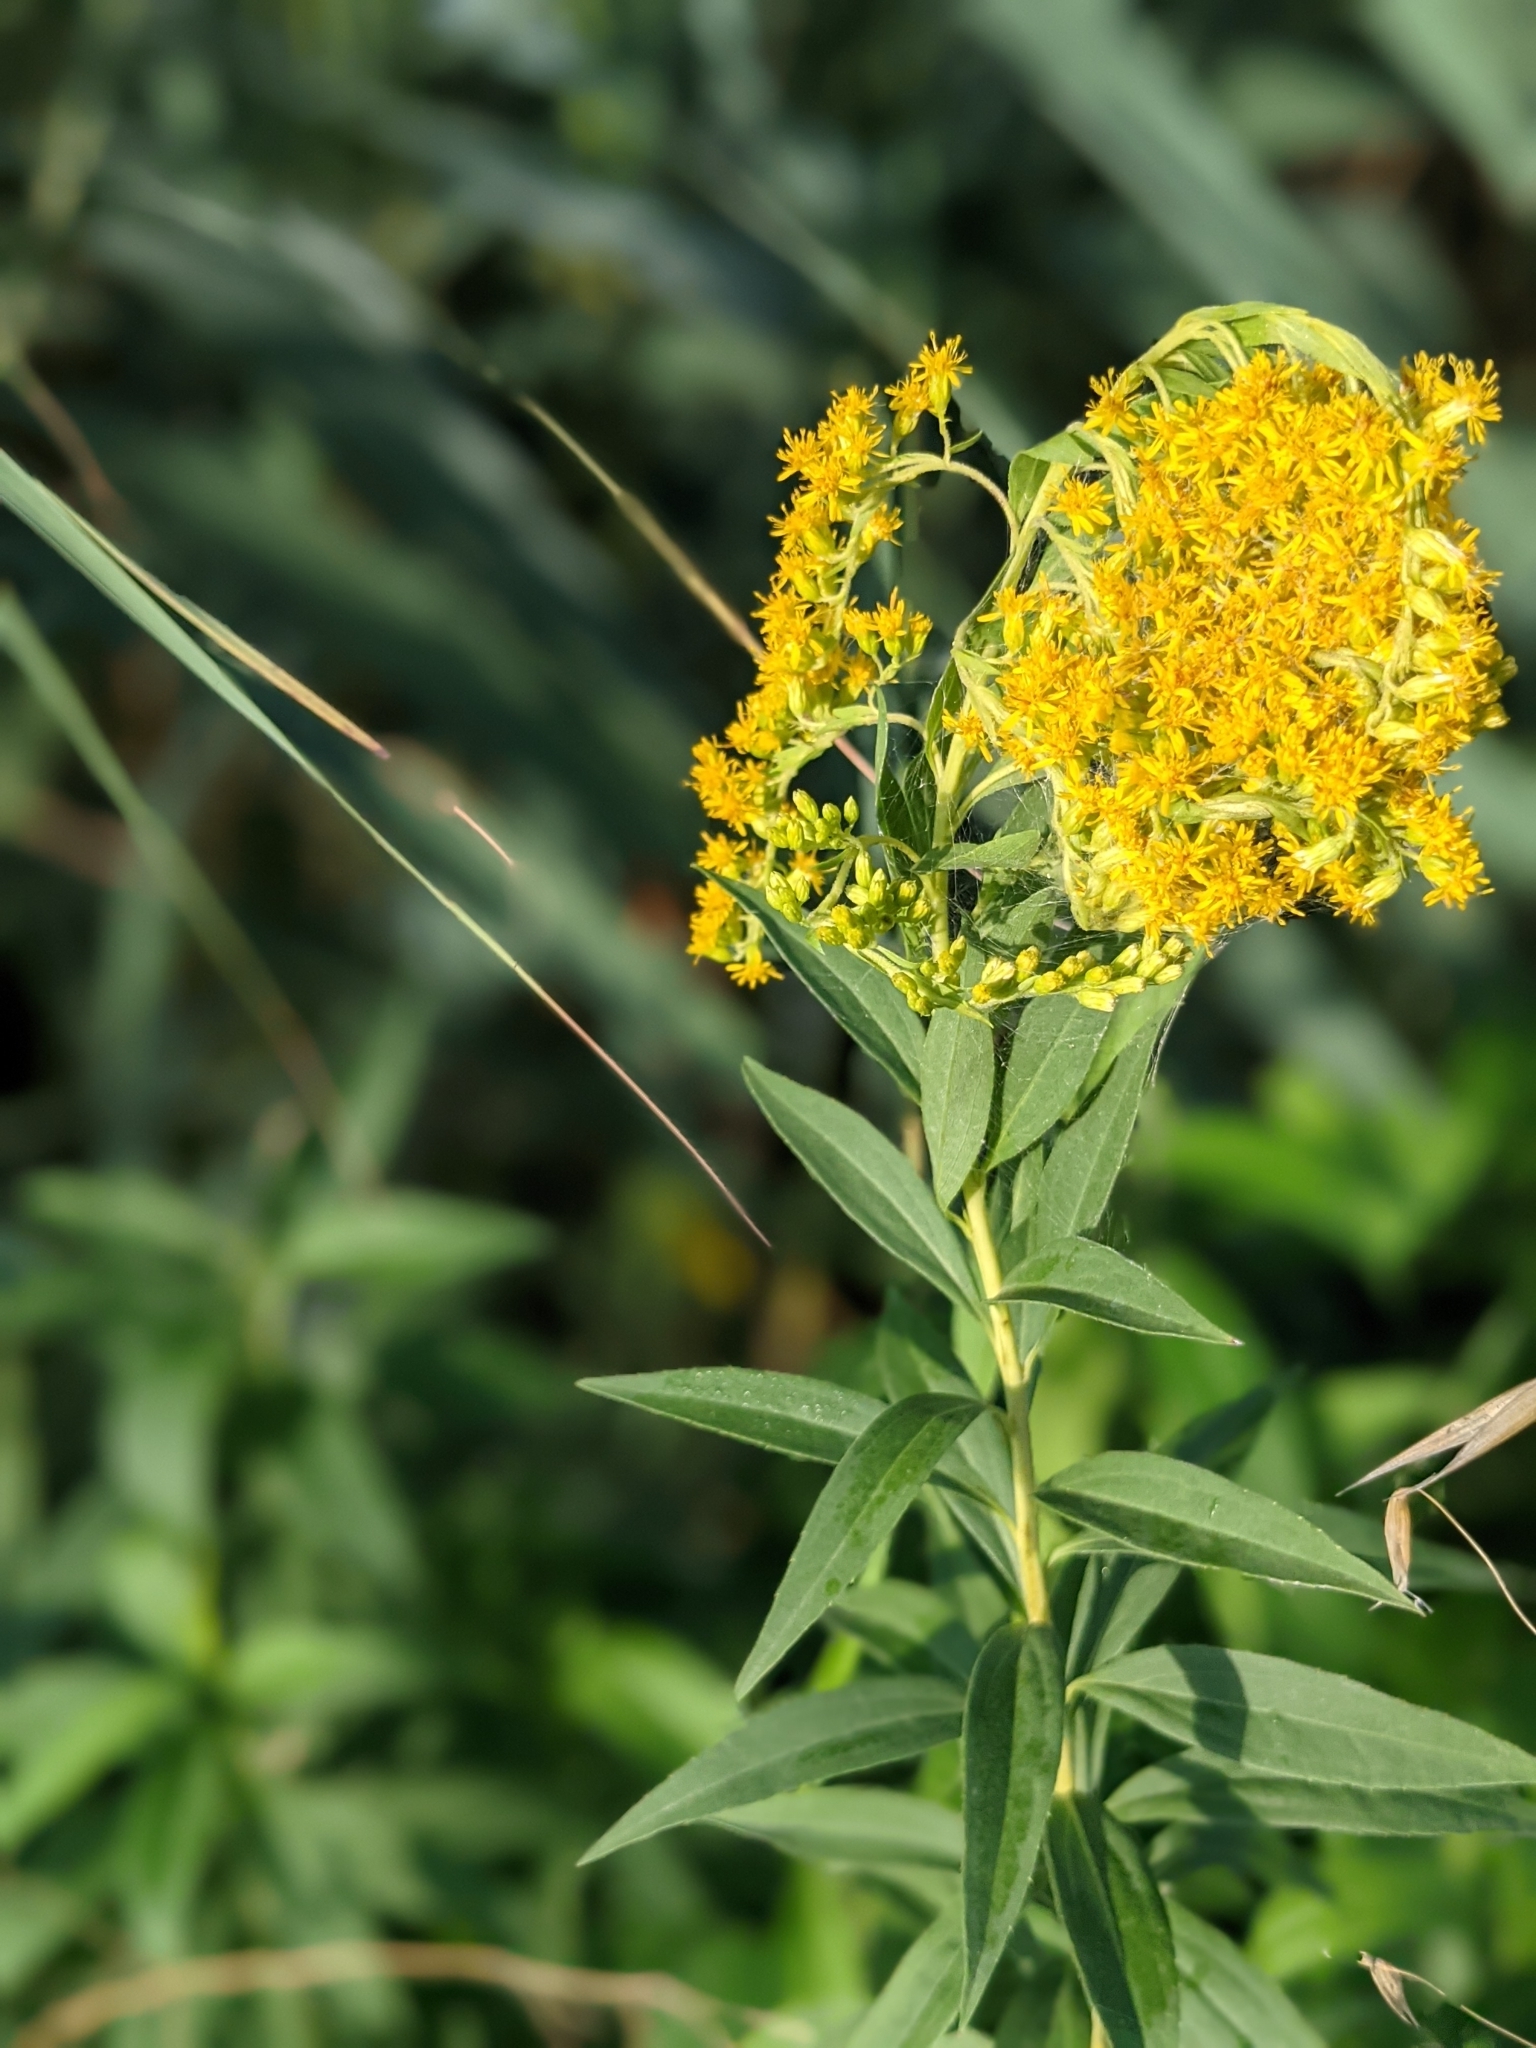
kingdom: Plantae
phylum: Tracheophyta
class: Magnoliopsida
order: Asterales
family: Asteraceae
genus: Solidago
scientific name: Solidago gigantea
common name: Giant goldenrod
